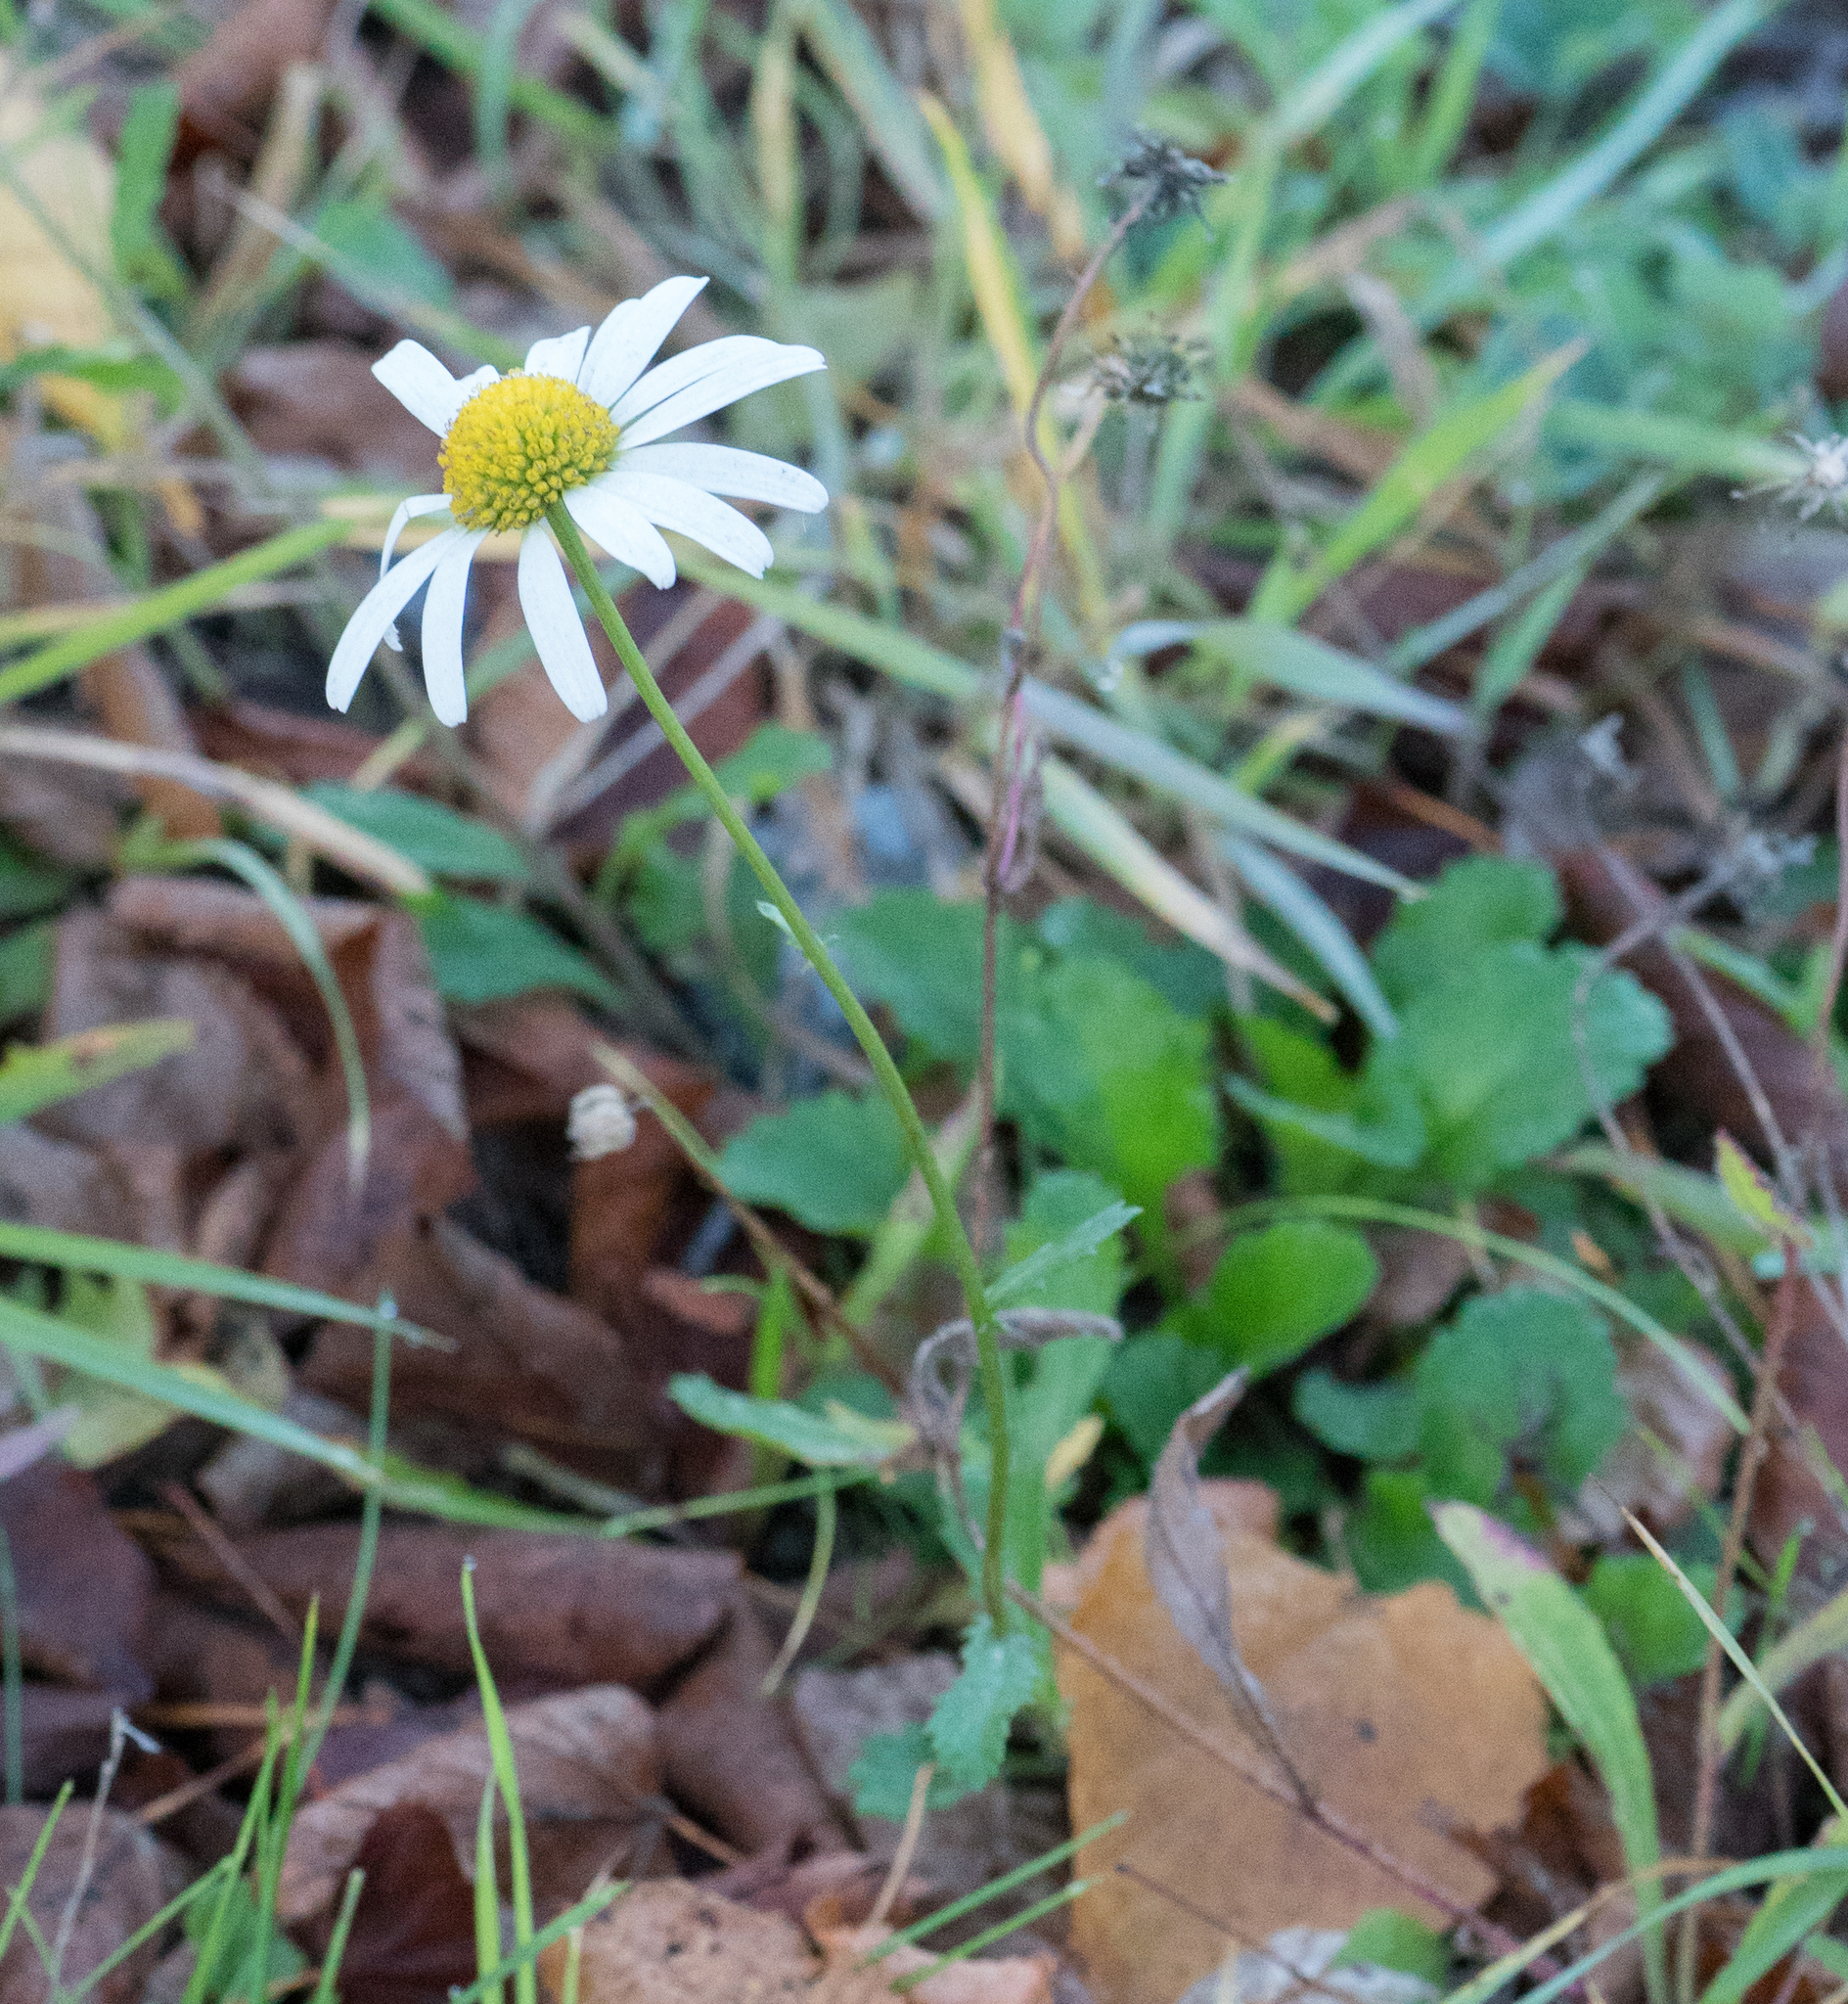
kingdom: Plantae
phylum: Tracheophyta
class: Magnoliopsida
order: Asterales
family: Asteraceae
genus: Leucanthemum
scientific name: Leucanthemum vulgare
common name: Oxeye daisy
